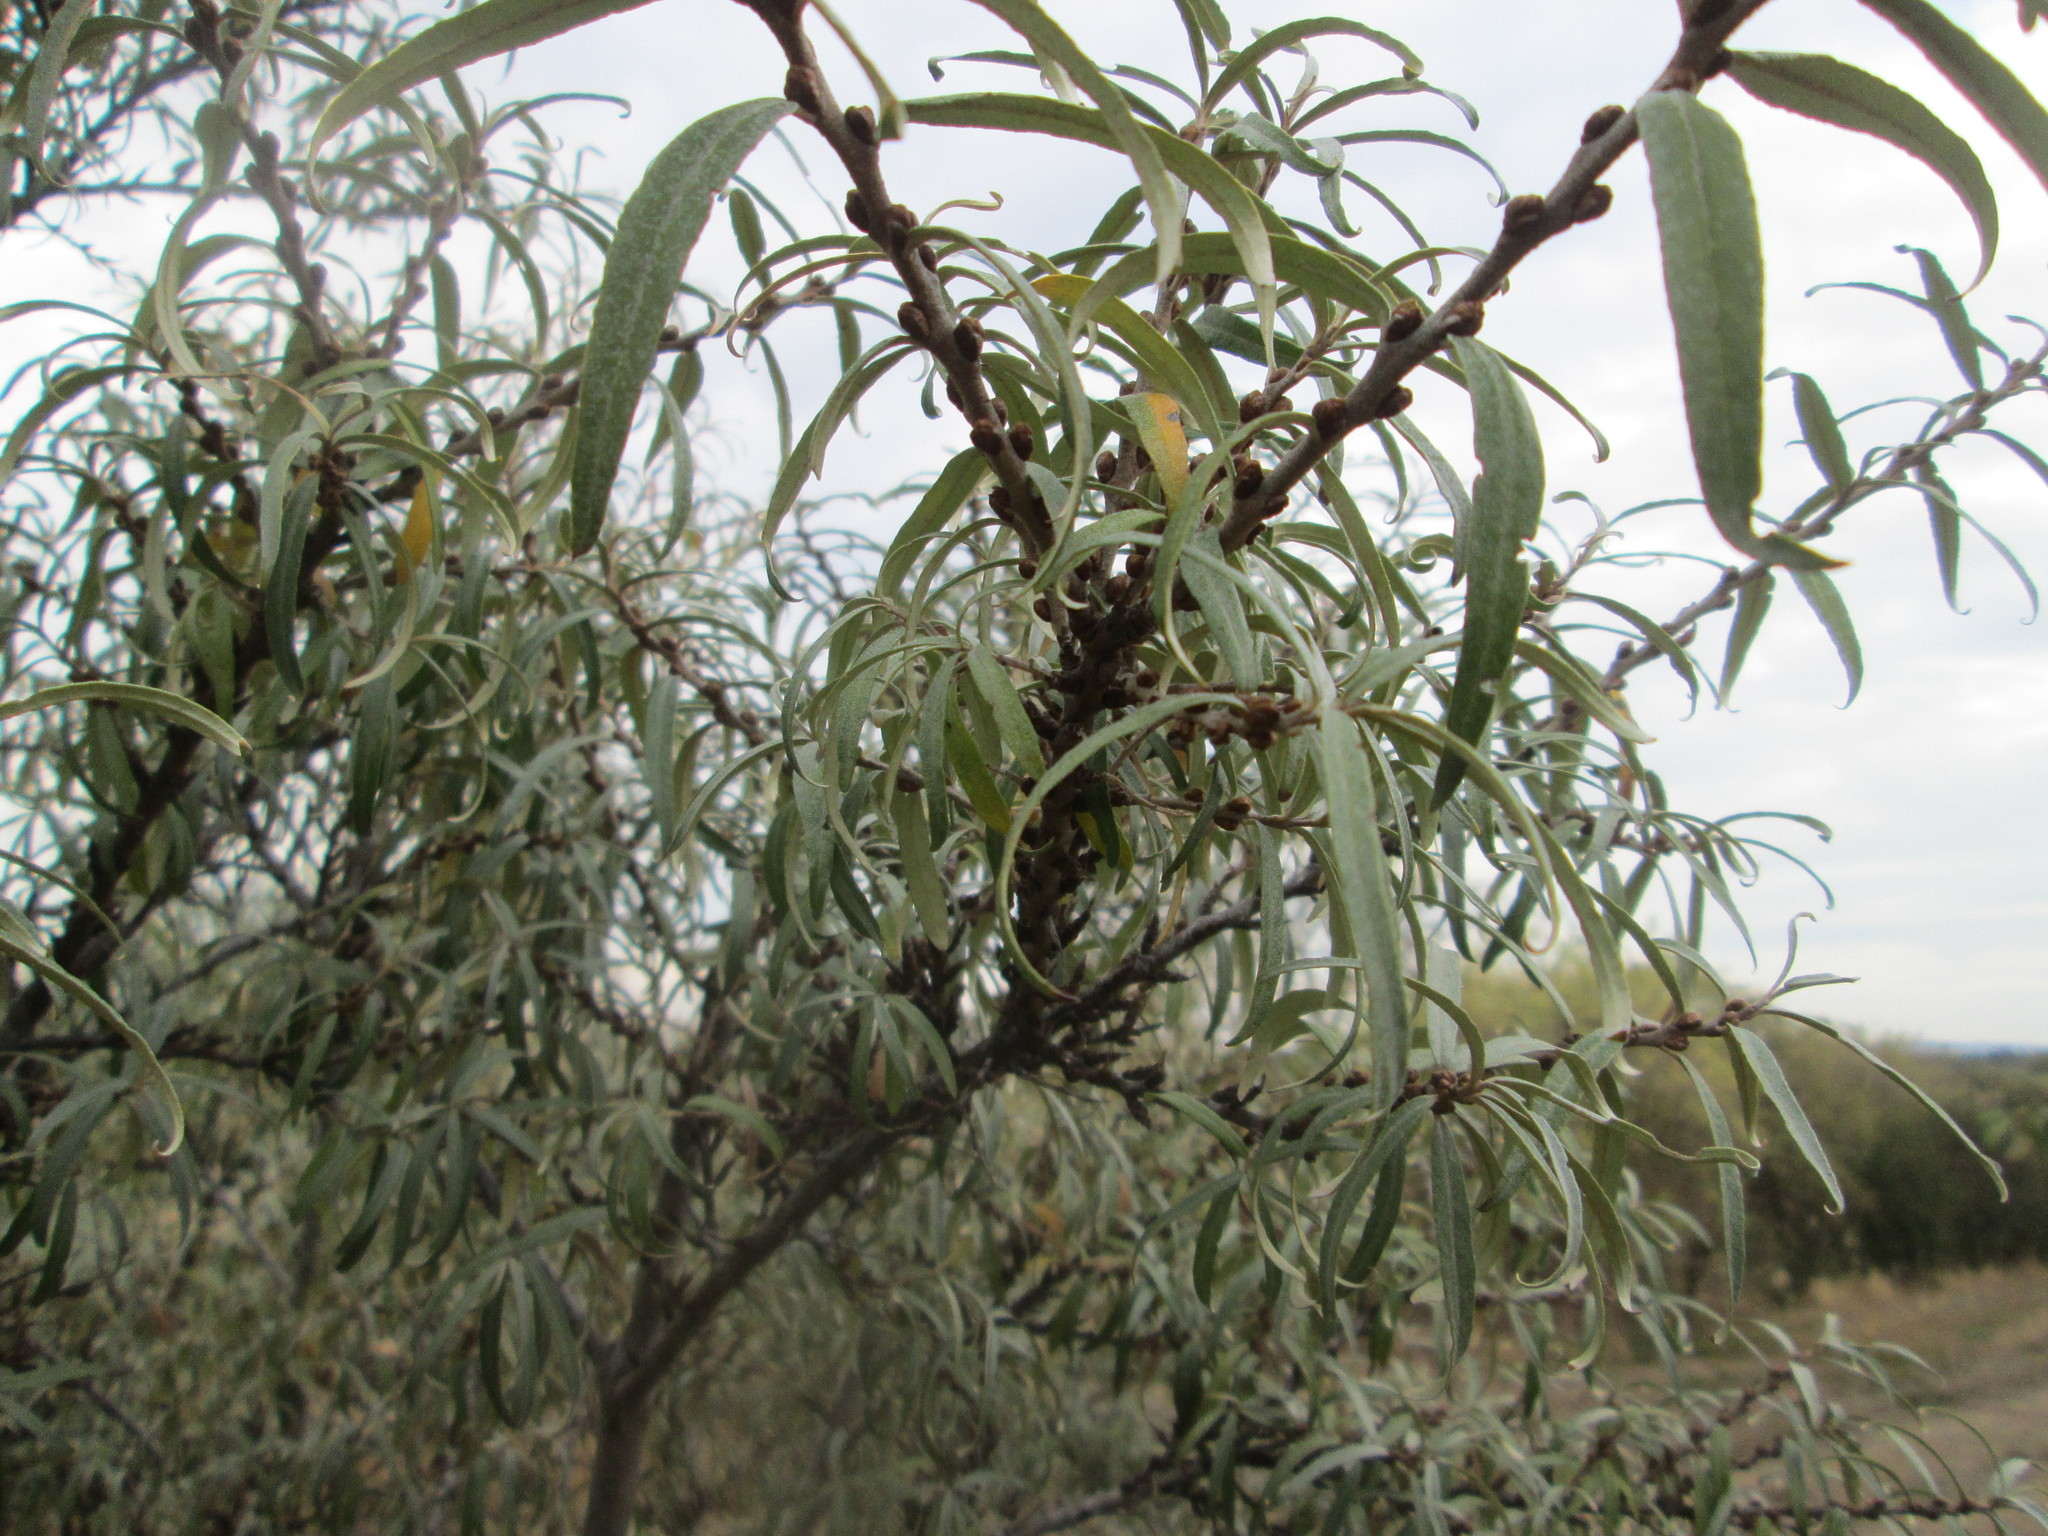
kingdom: Plantae
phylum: Tracheophyta
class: Magnoliopsida
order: Rosales
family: Elaeagnaceae
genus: Hippophae
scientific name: Hippophae rhamnoides
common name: Sea-buckthorn
